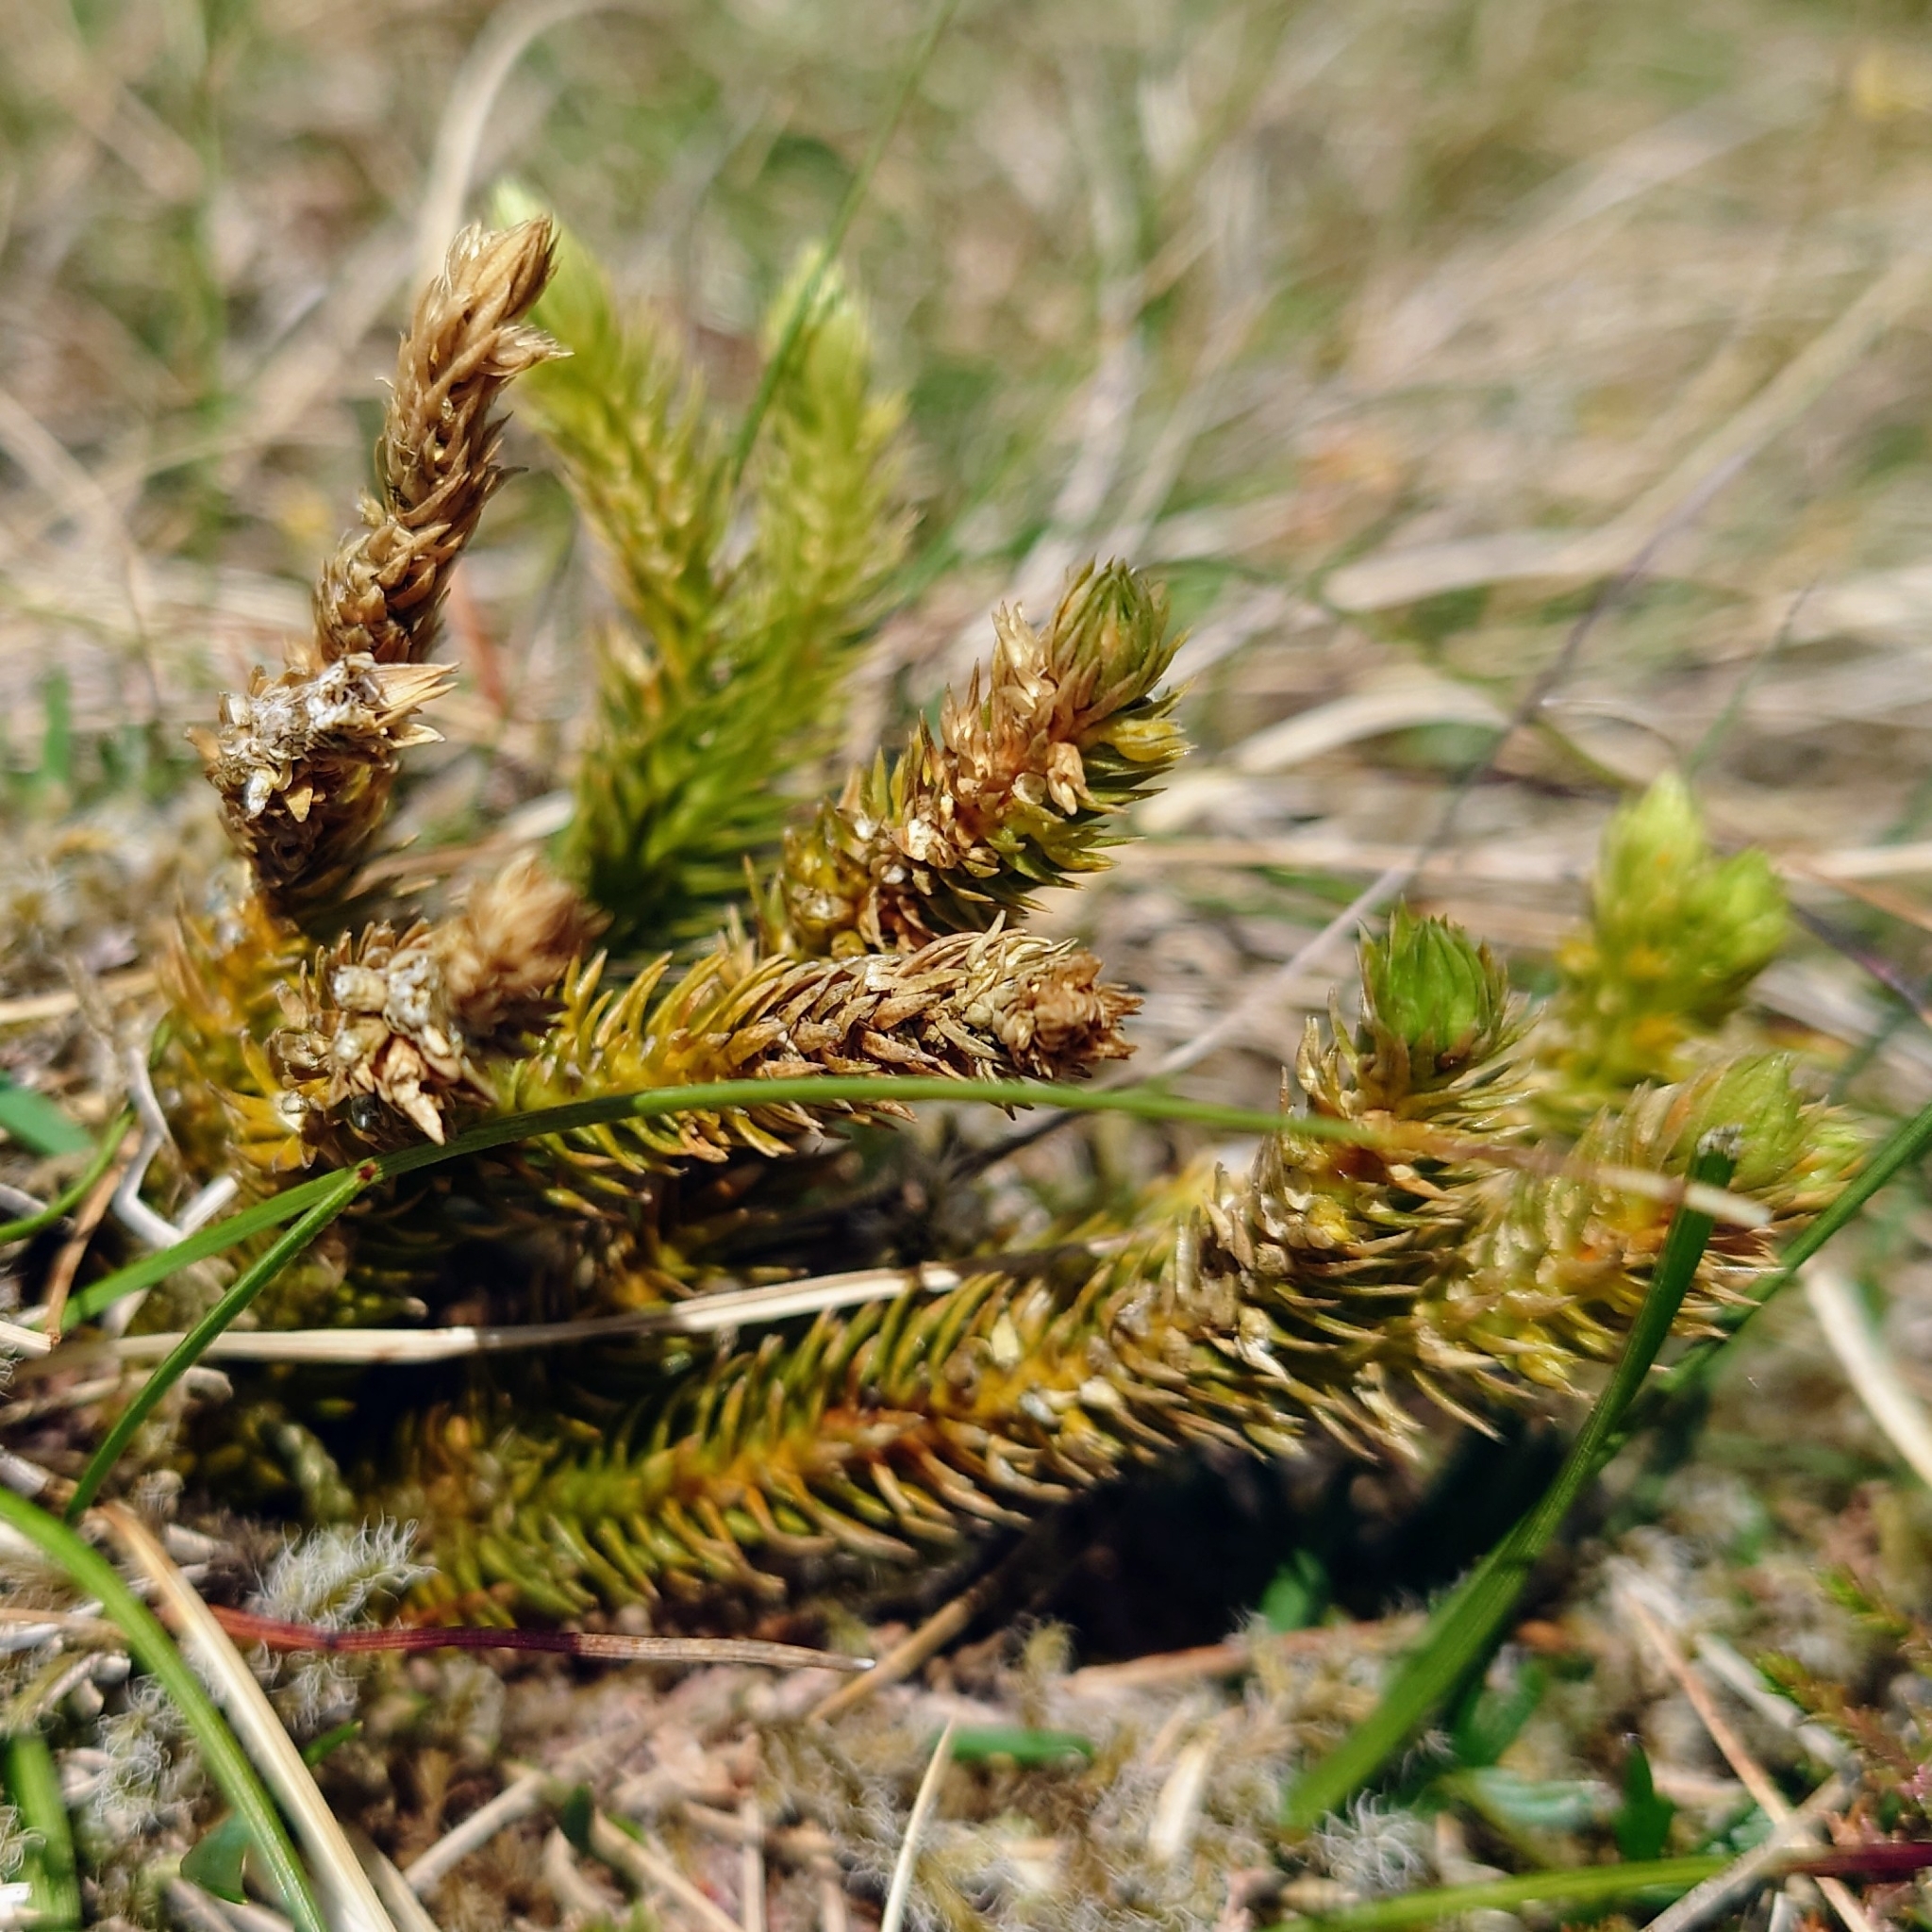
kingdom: Plantae
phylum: Tracheophyta
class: Lycopodiopsida
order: Lycopodiales
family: Lycopodiaceae
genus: Huperzia
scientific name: Huperzia selago
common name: Northern firmoss
